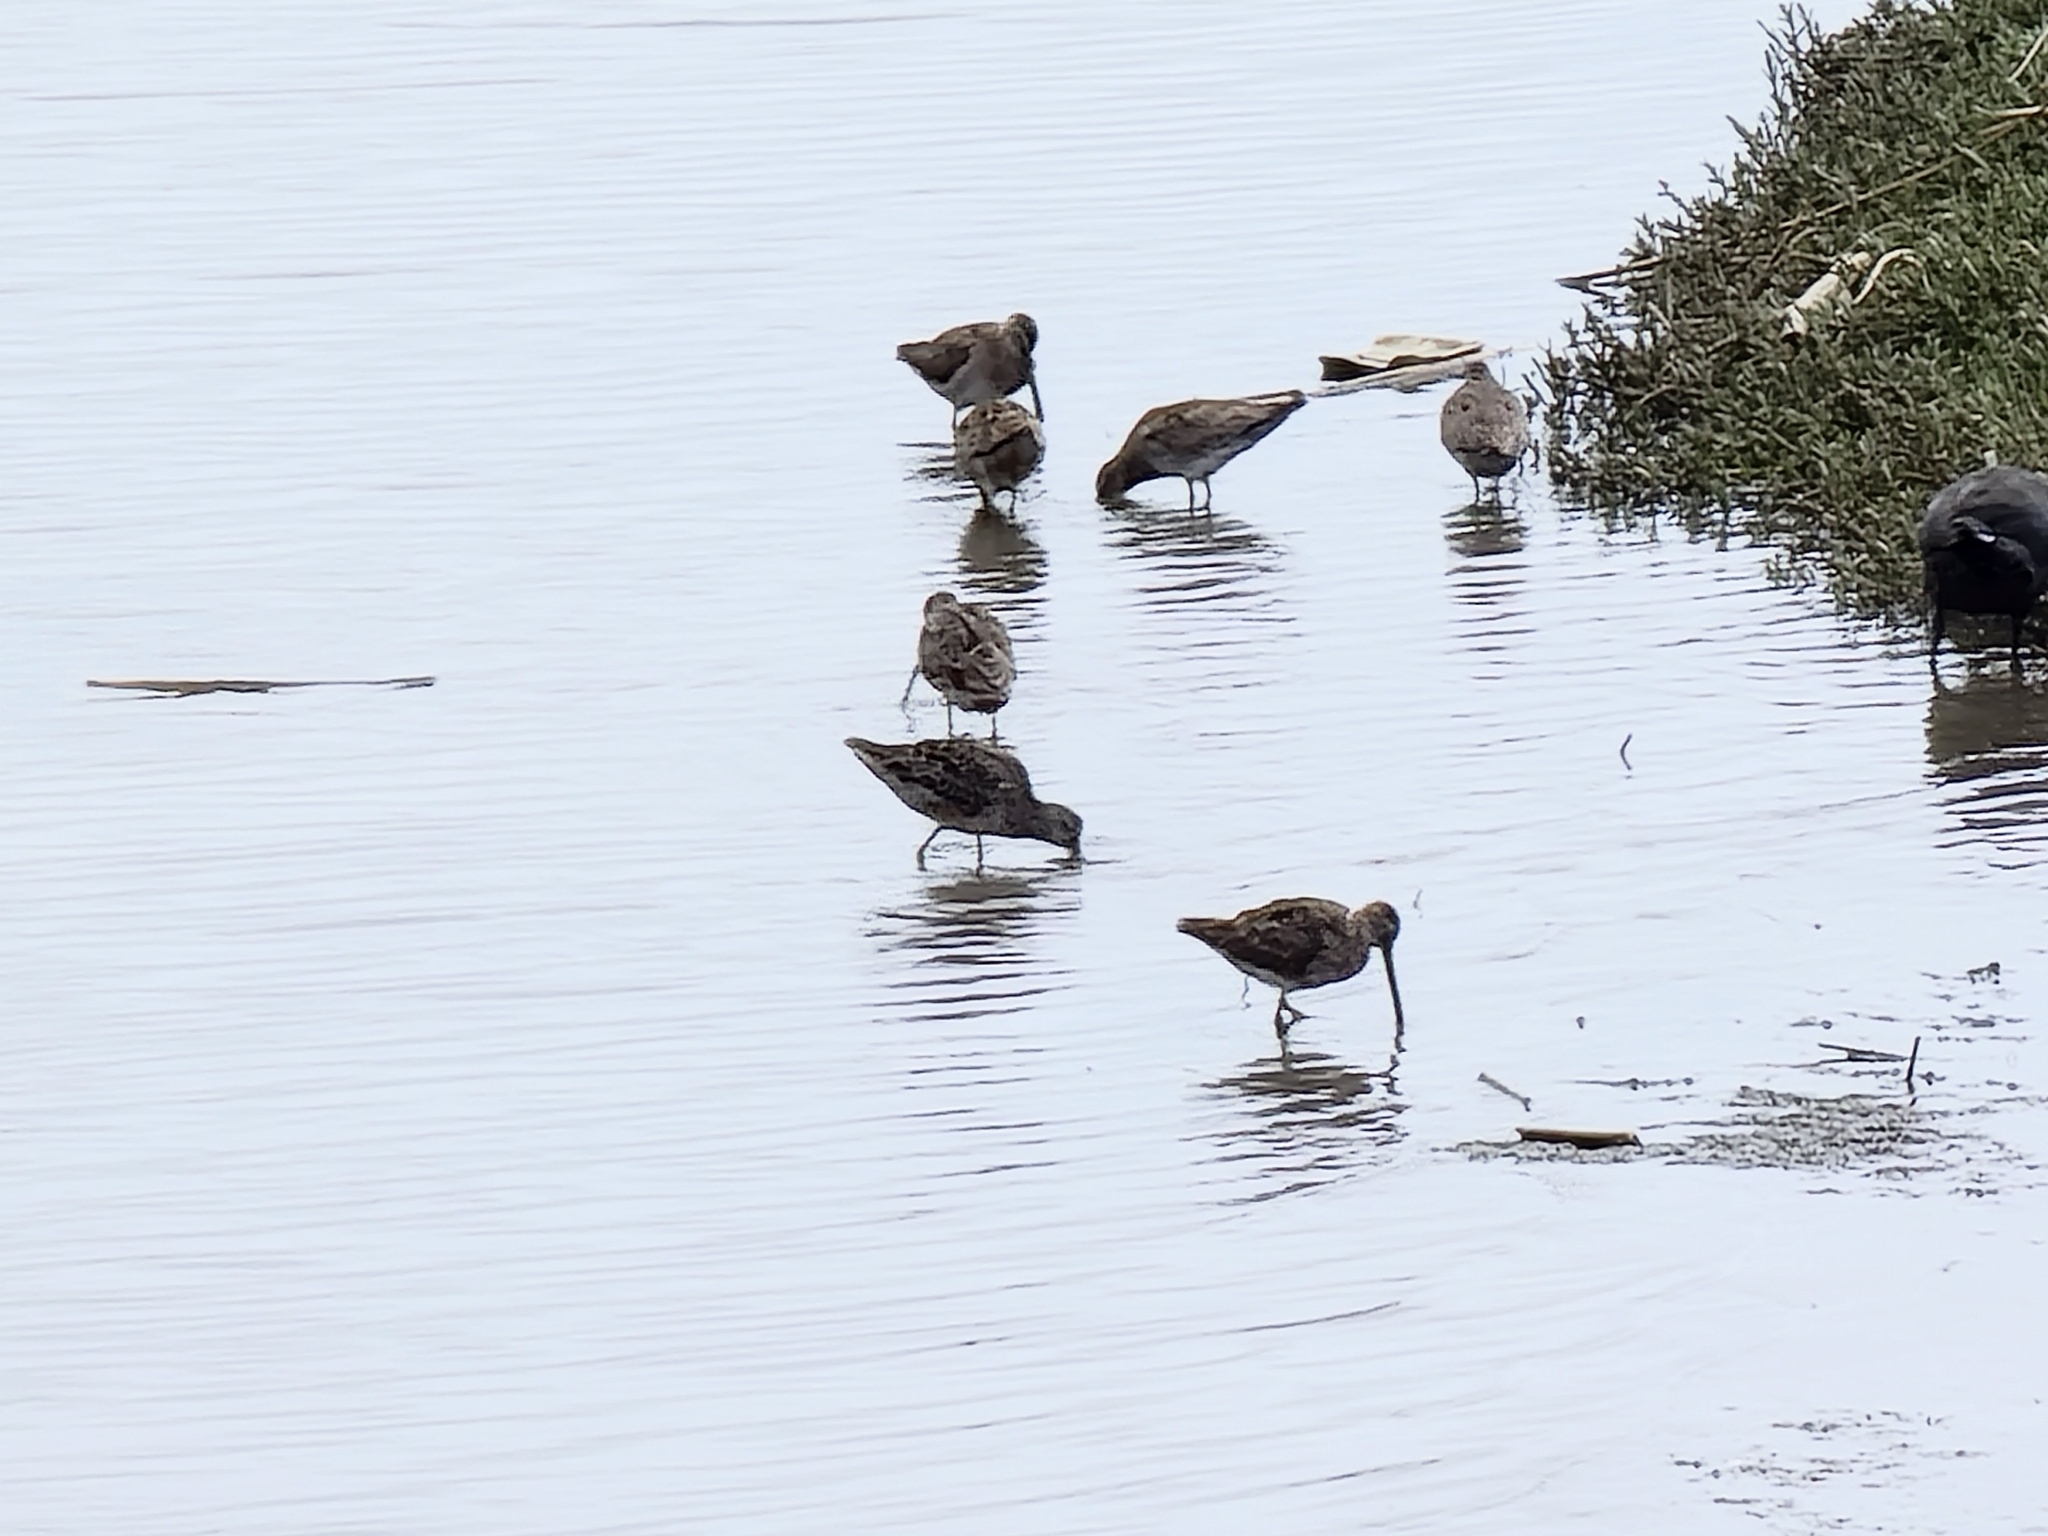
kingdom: Animalia
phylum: Chordata
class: Aves
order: Charadriiformes
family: Scolopacidae
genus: Limnodromus
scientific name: Limnodromus
